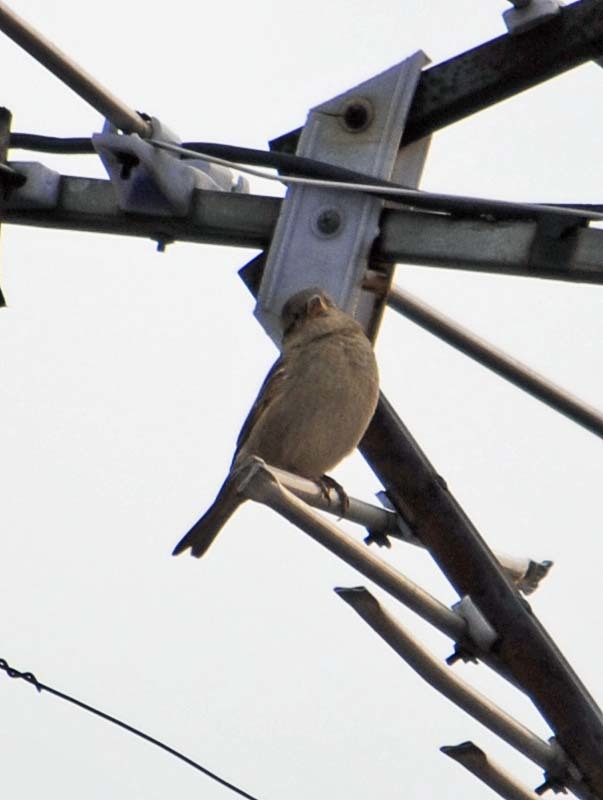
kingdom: Animalia
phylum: Chordata
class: Aves
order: Passeriformes
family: Passeridae
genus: Passer
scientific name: Passer domesticus
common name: House sparrow
